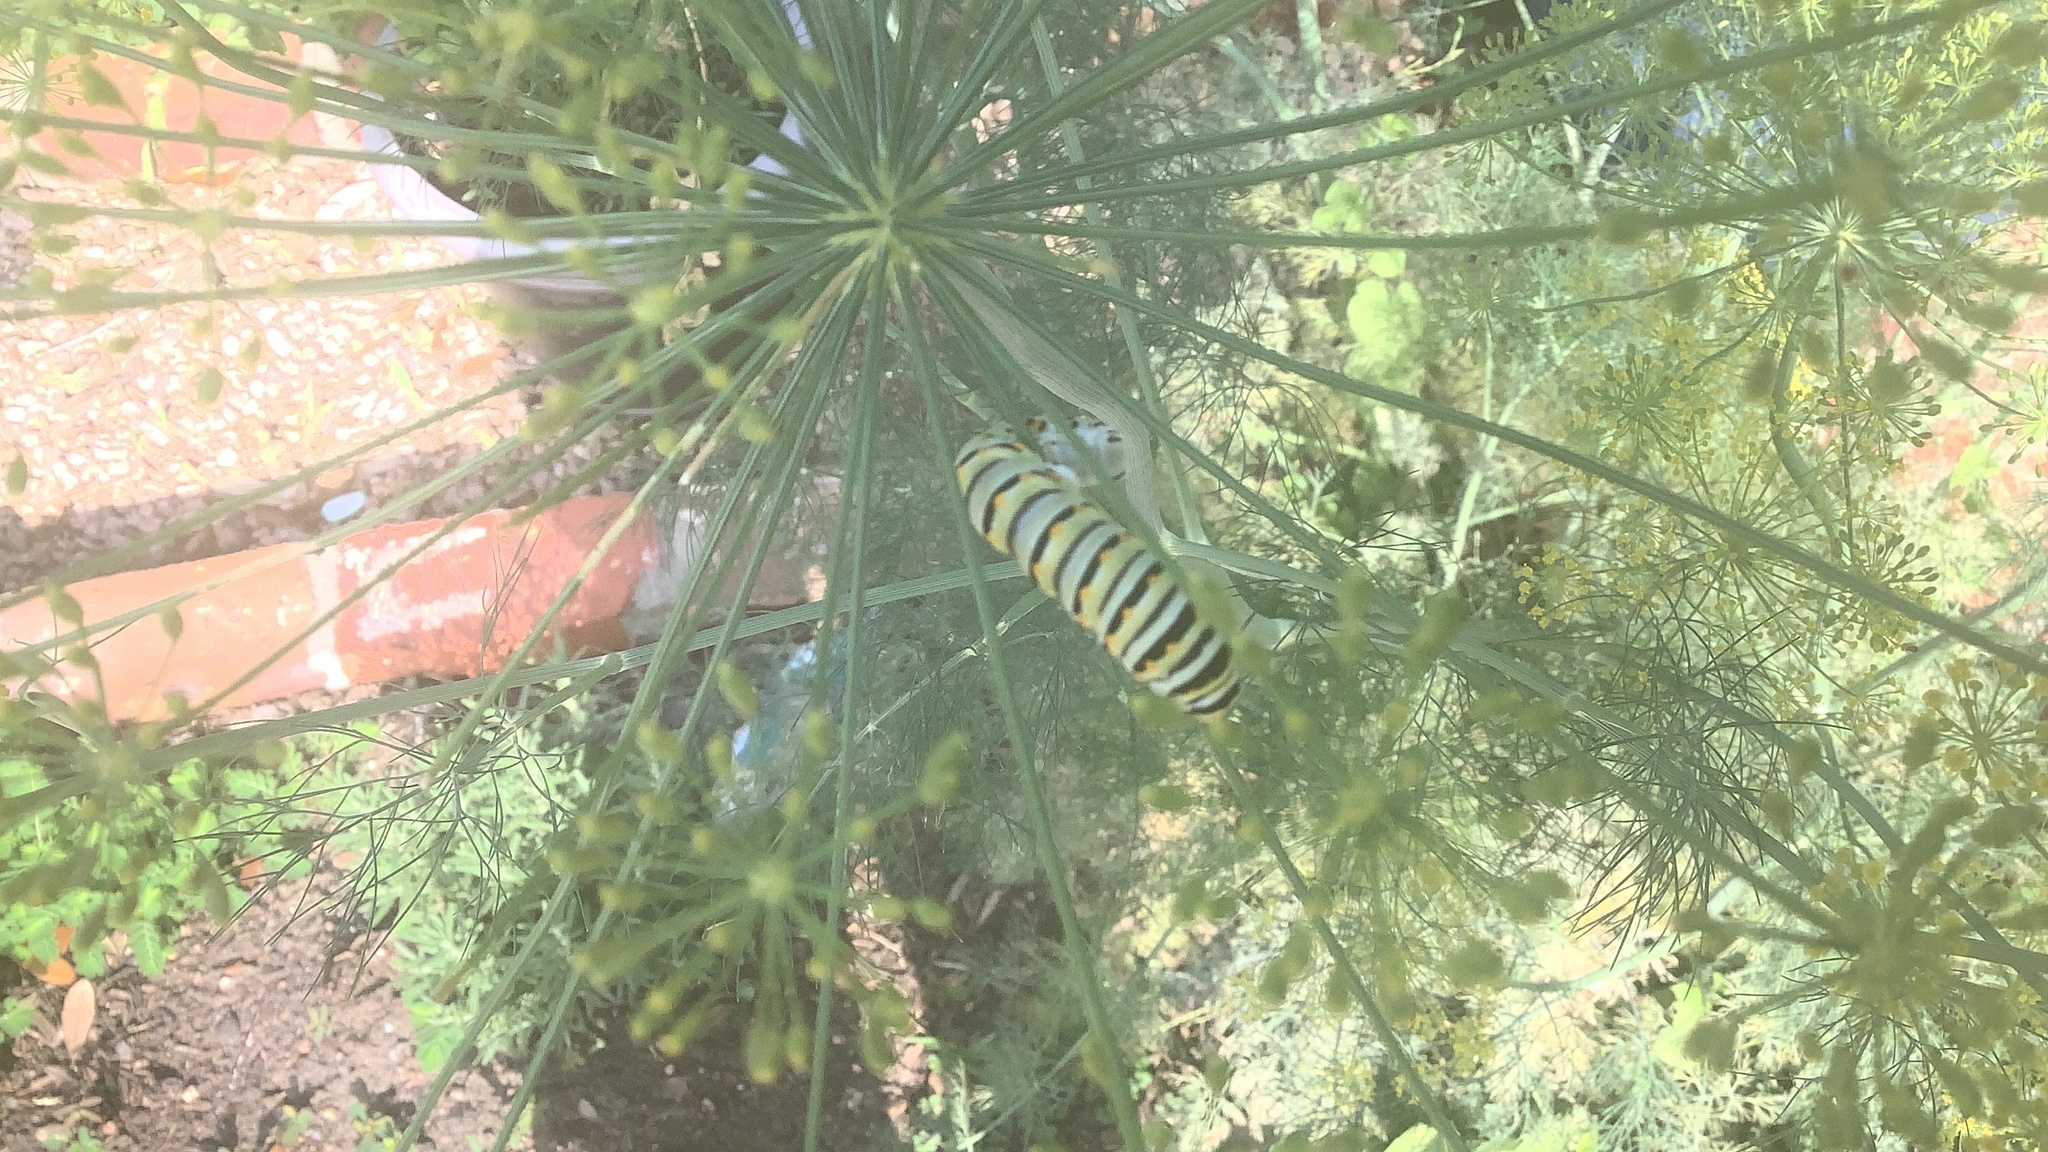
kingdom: Animalia
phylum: Arthropoda
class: Insecta
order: Lepidoptera
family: Papilionidae
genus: Papilio
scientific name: Papilio polyxenes
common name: Black swallowtail
